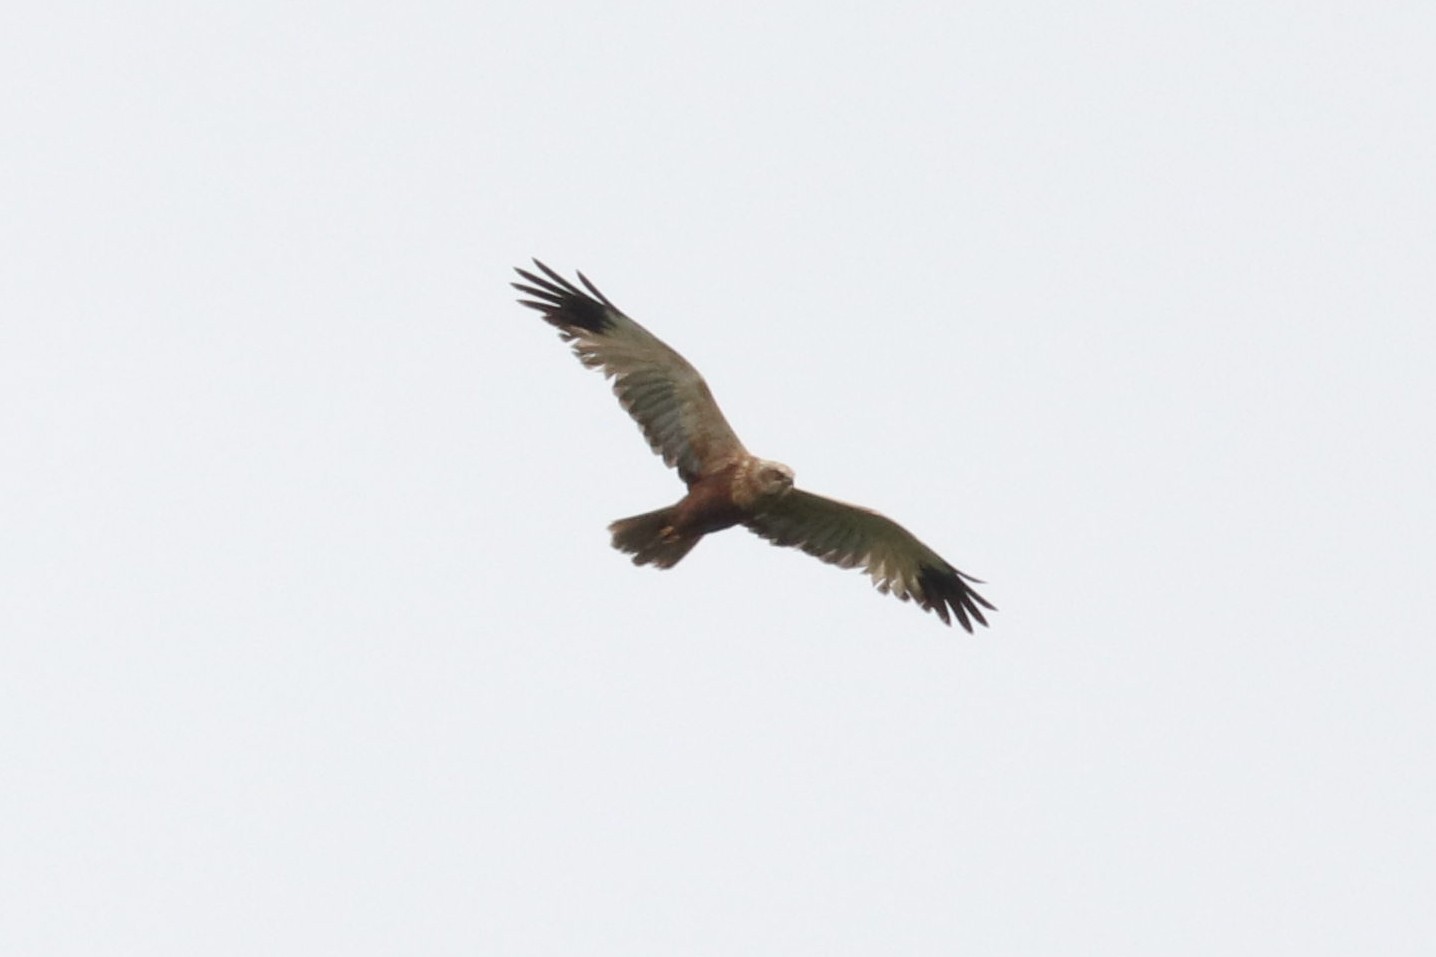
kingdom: Animalia
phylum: Chordata
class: Aves
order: Accipitriformes
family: Accipitridae
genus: Circus
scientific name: Circus aeruginosus
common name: Western marsh harrier
